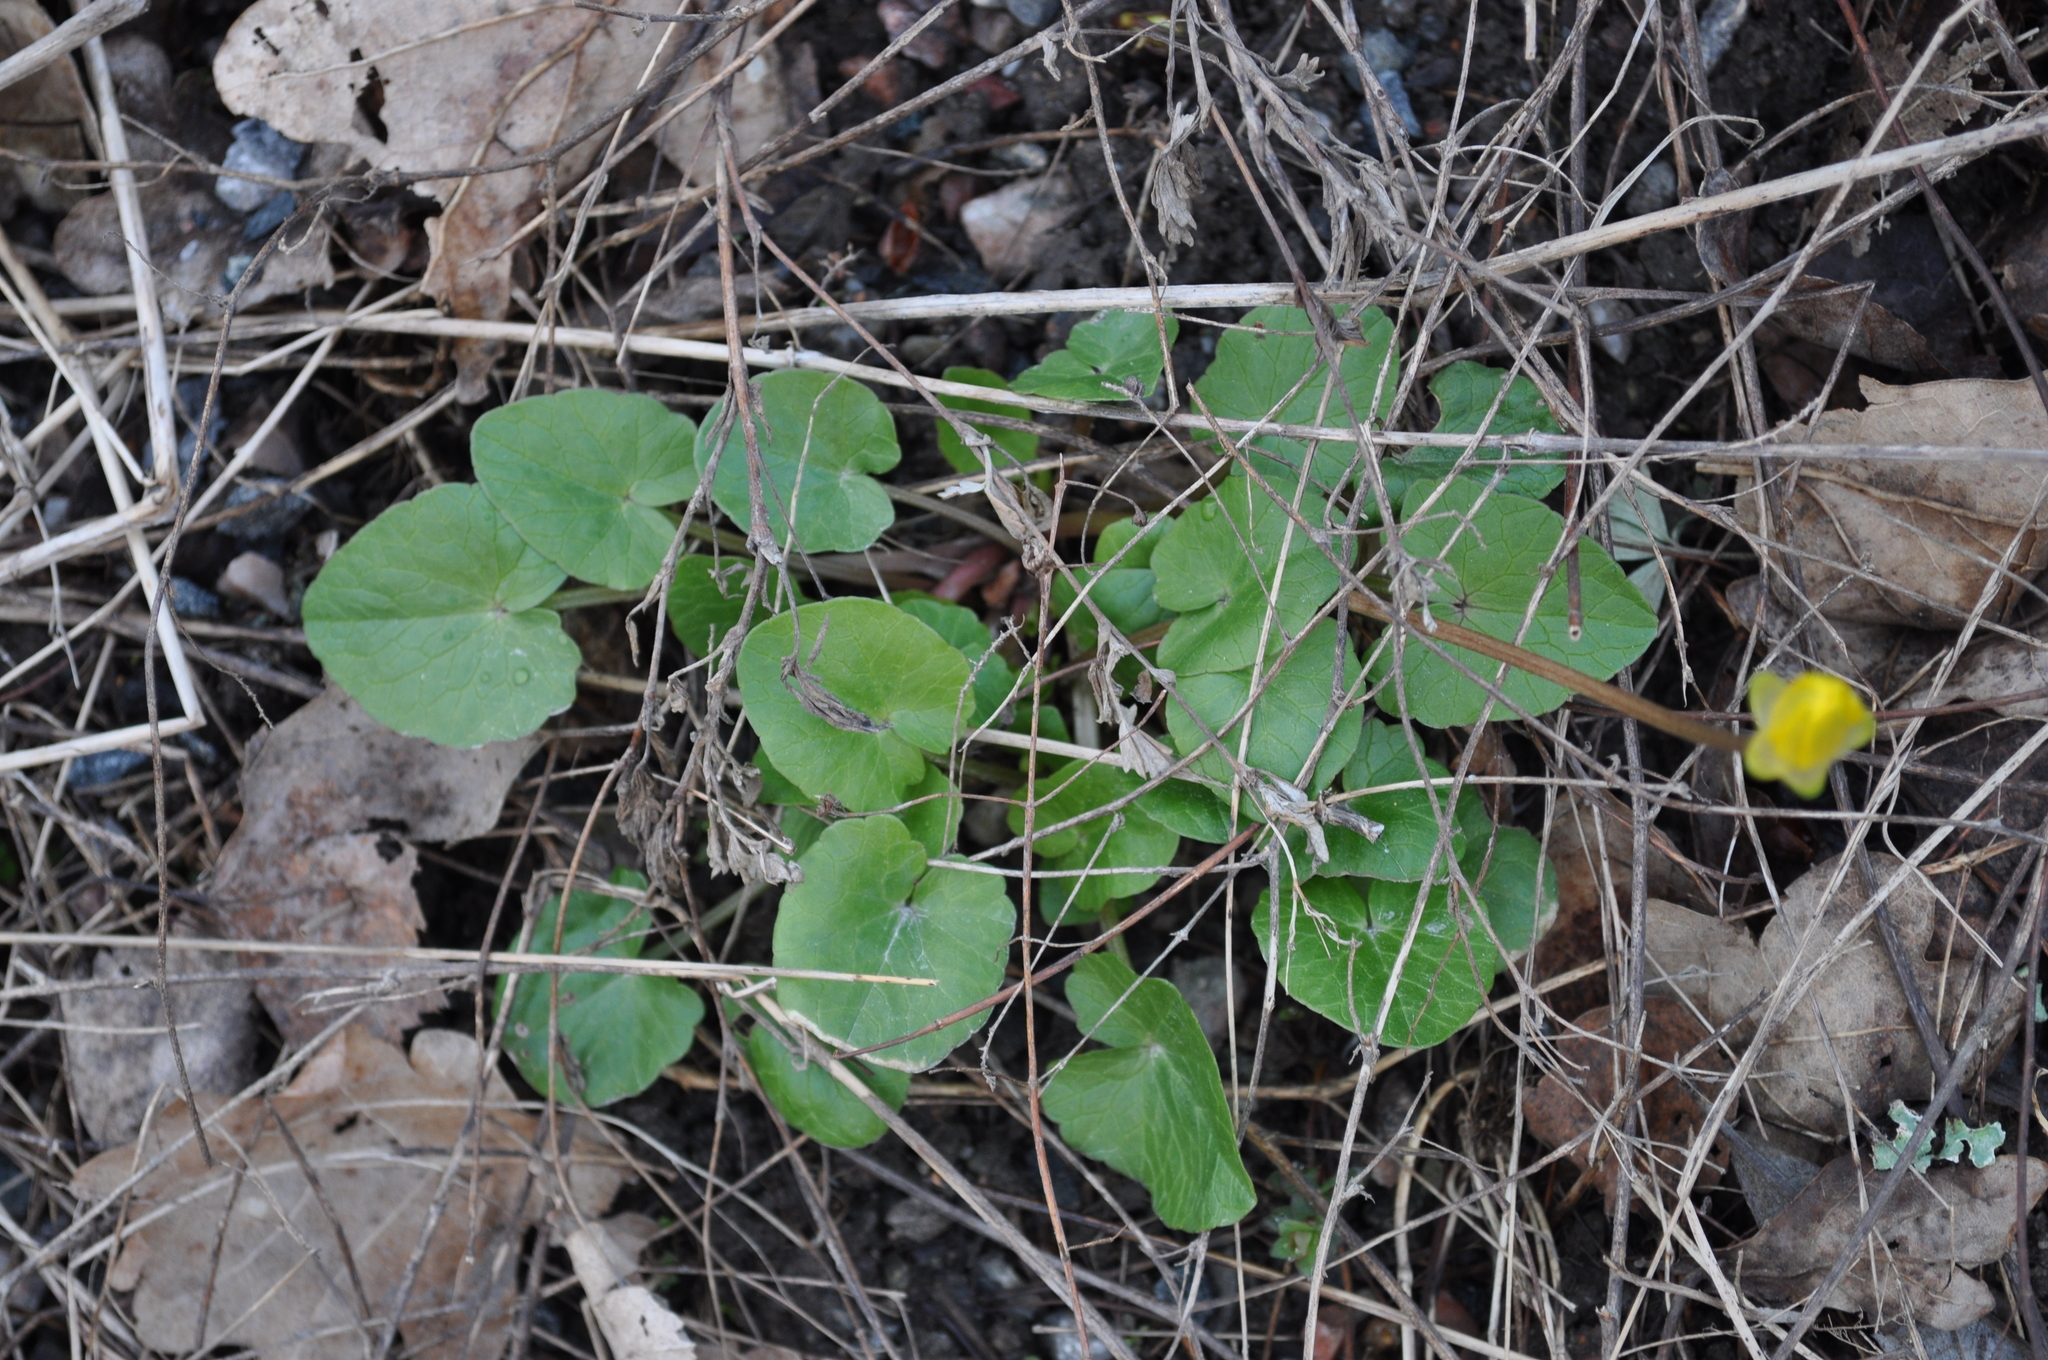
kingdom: Plantae
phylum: Tracheophyta
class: Magnoliopsida
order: Ranunculales
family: Ranunculaceae
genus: Ficaria
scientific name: Ficaria verna
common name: Lesser celandine
